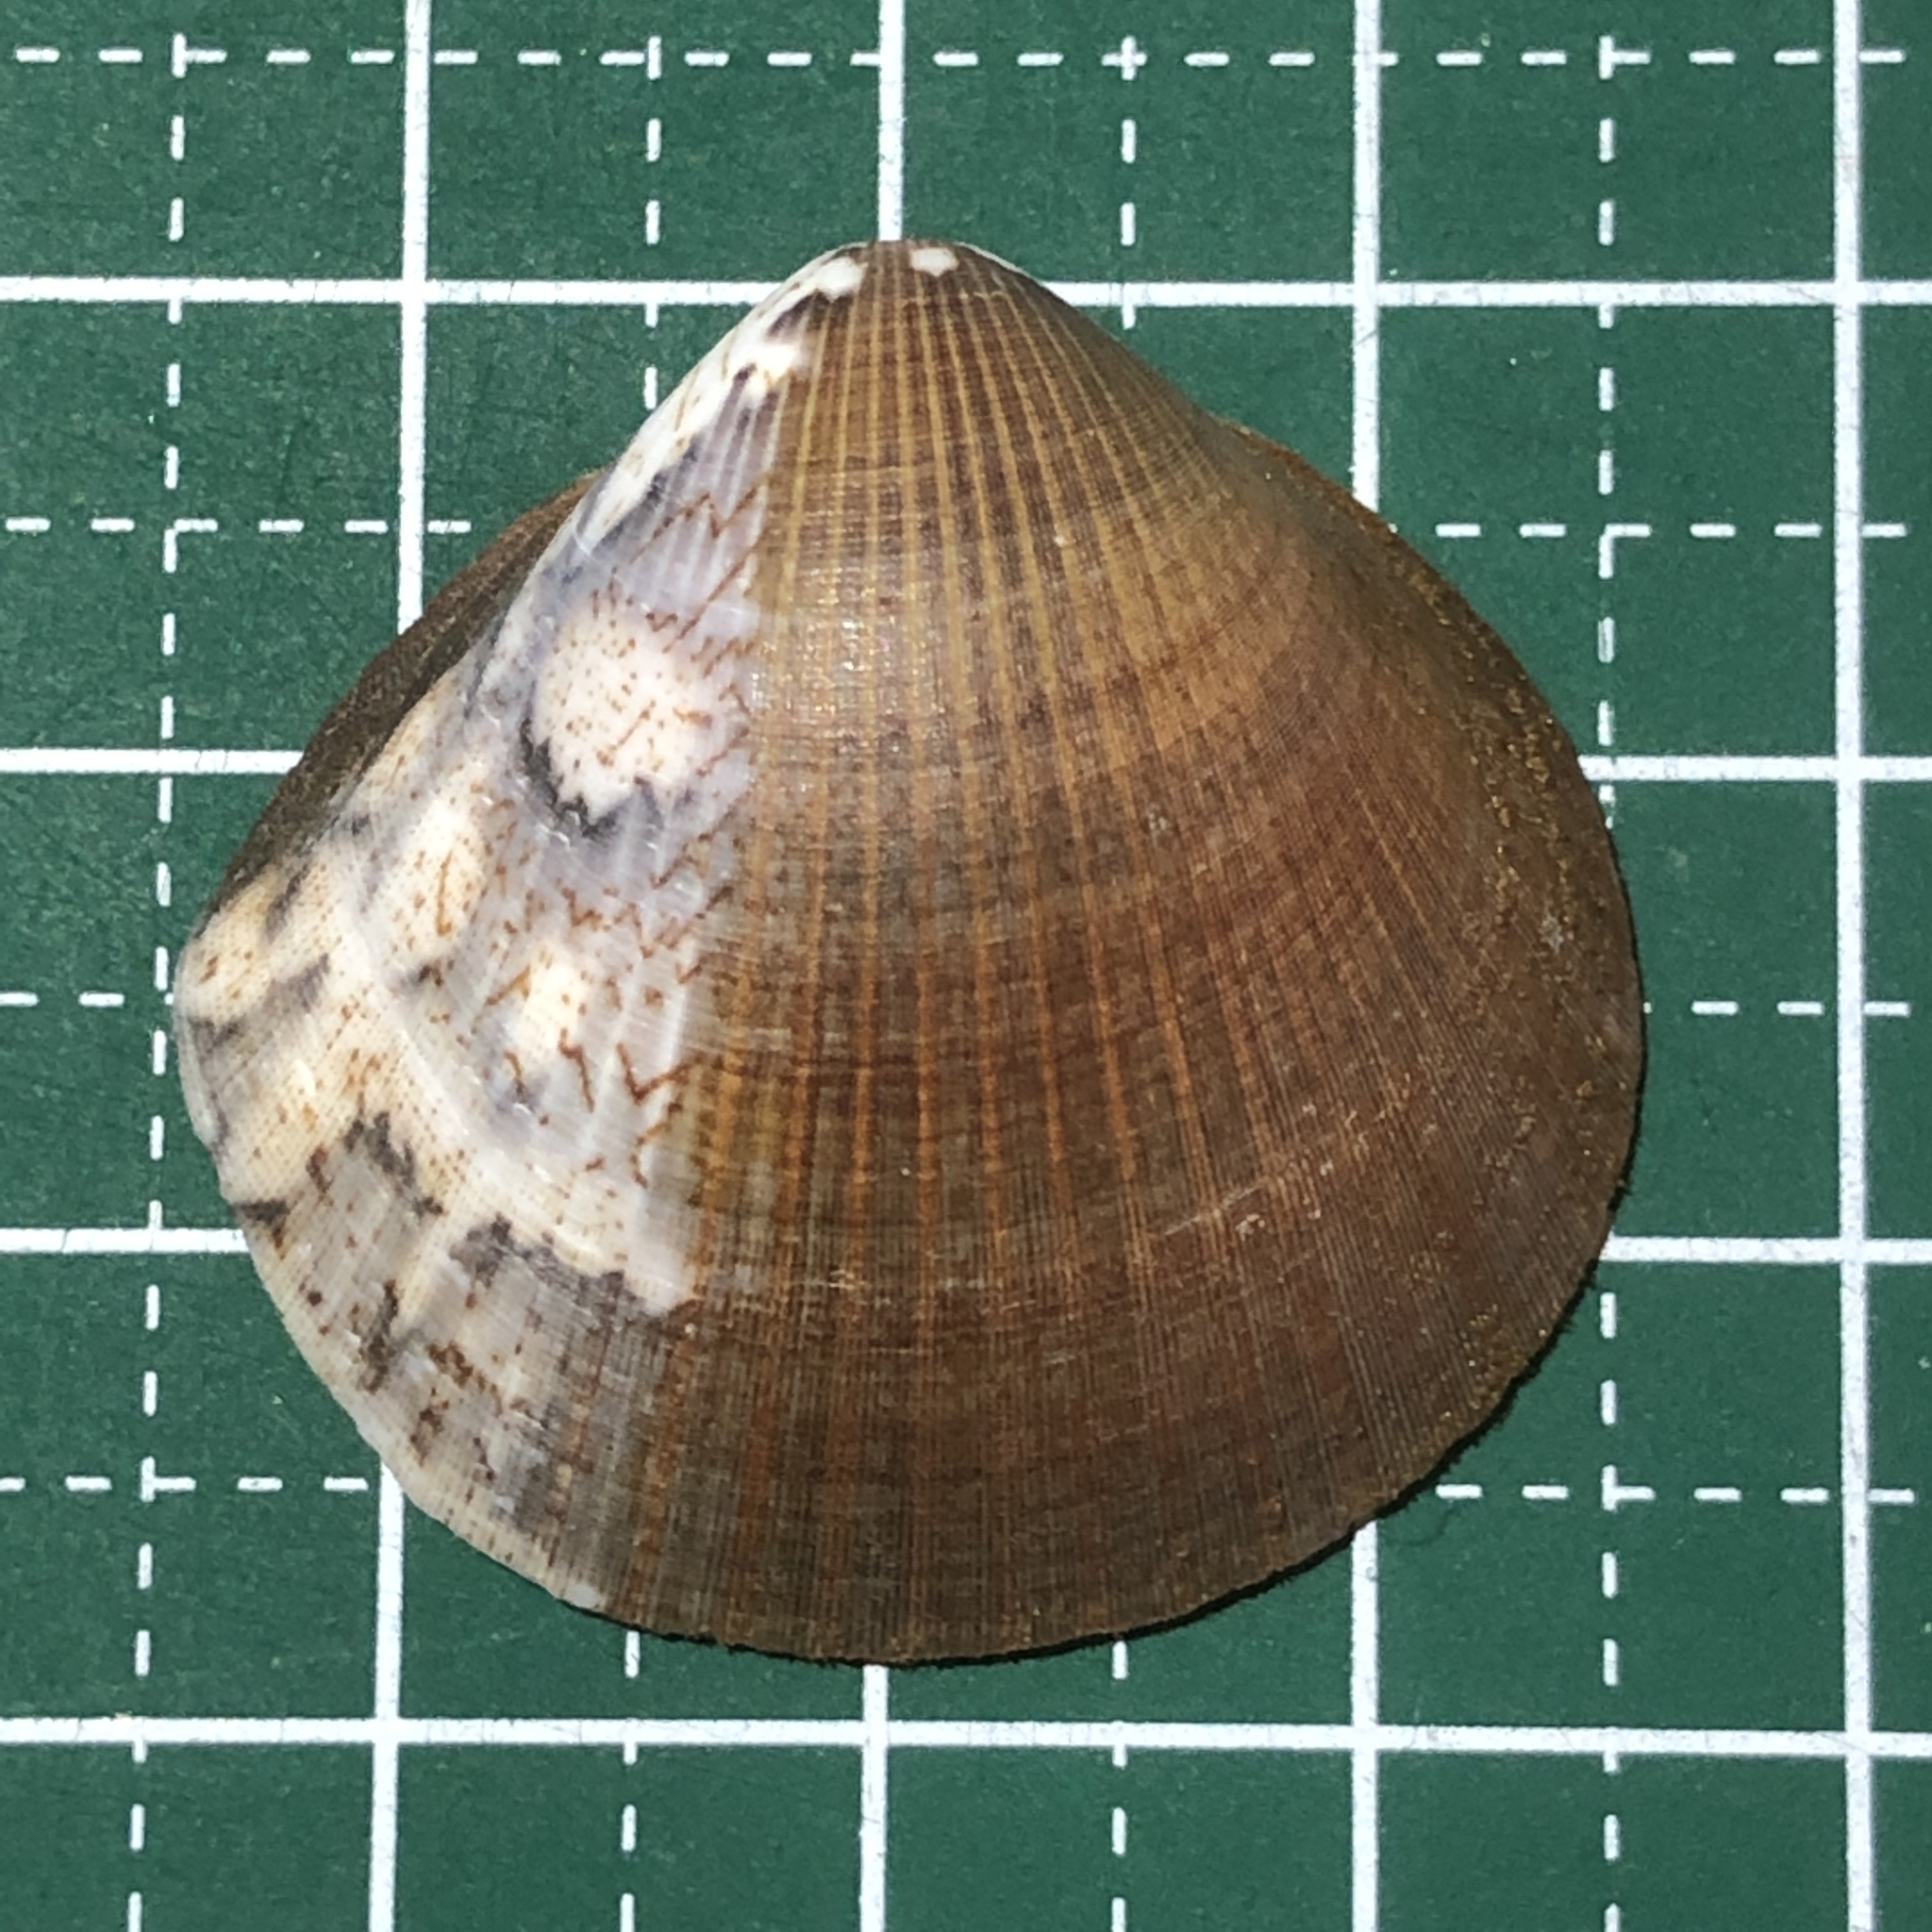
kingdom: Animalia
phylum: Mollusca
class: Bivalvia
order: Arcida
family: Glycymerididae
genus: Glycymeris
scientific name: Glycymeris reevei
